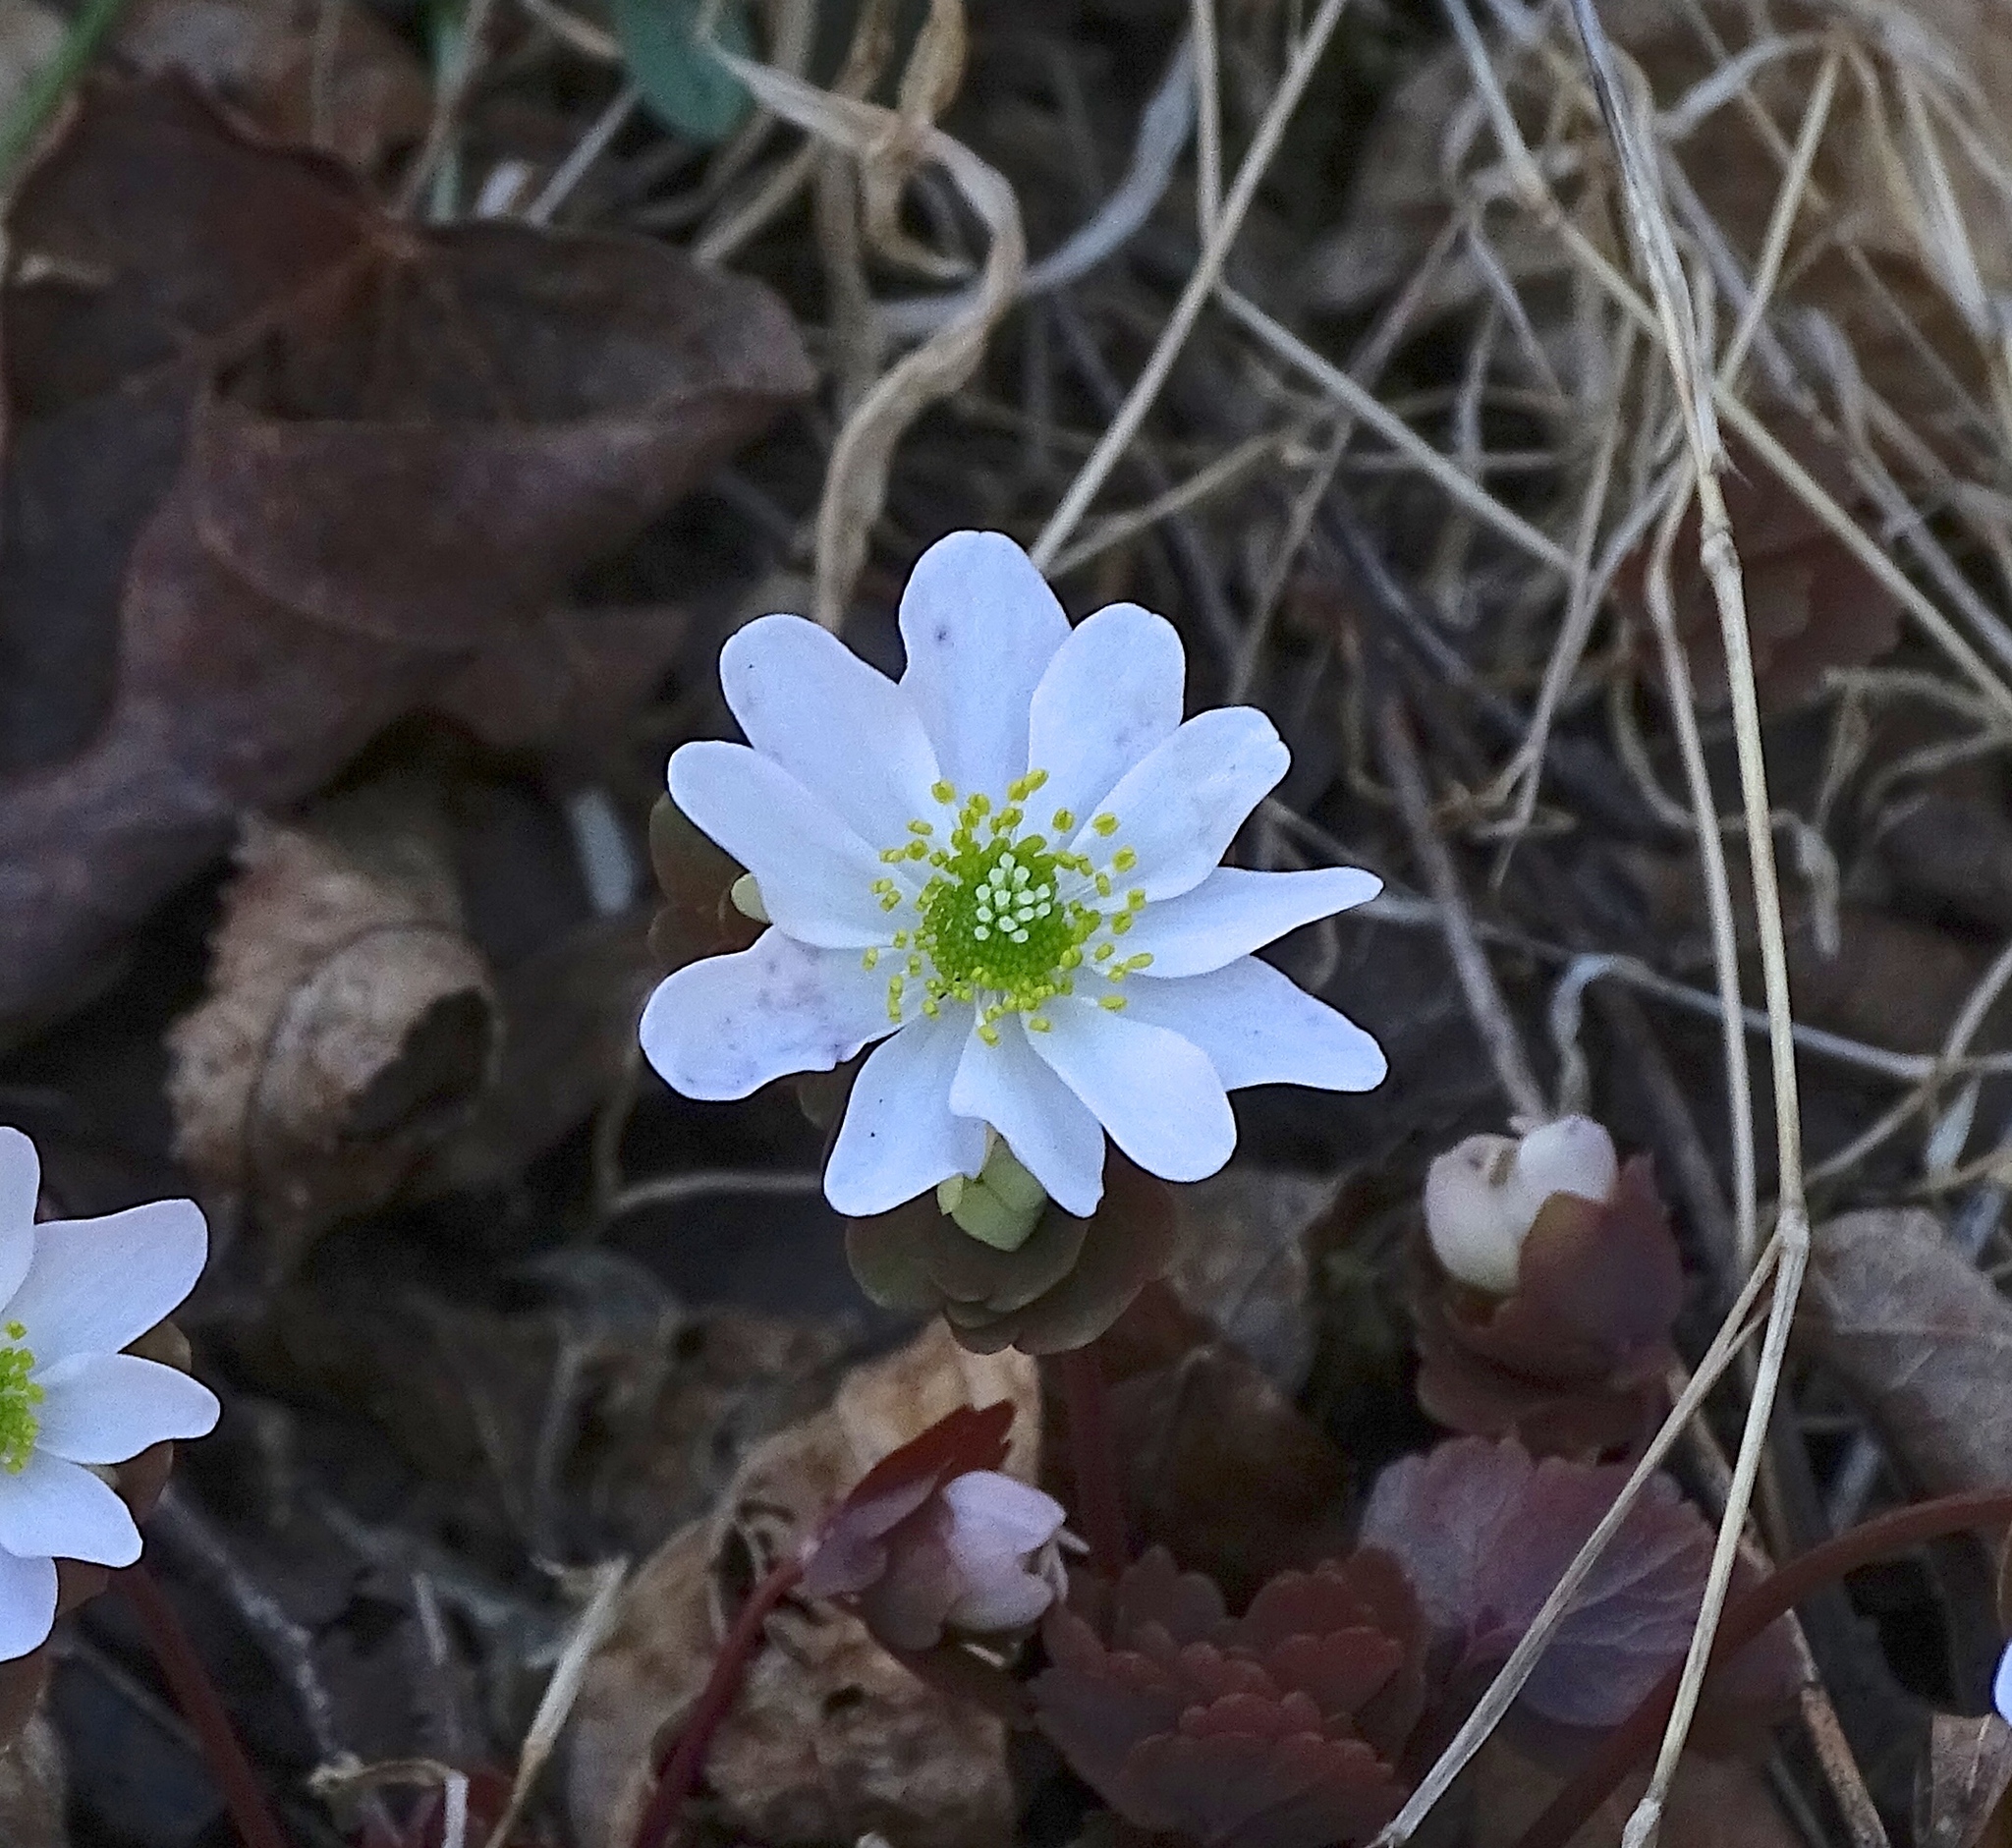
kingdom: Plantae
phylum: Tracheophyta
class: Magnoliopsida
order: Ranunculales
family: Ranunculaceae
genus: Thalictrum
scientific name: Thalictrum thalictroides
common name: Rue-anemone
